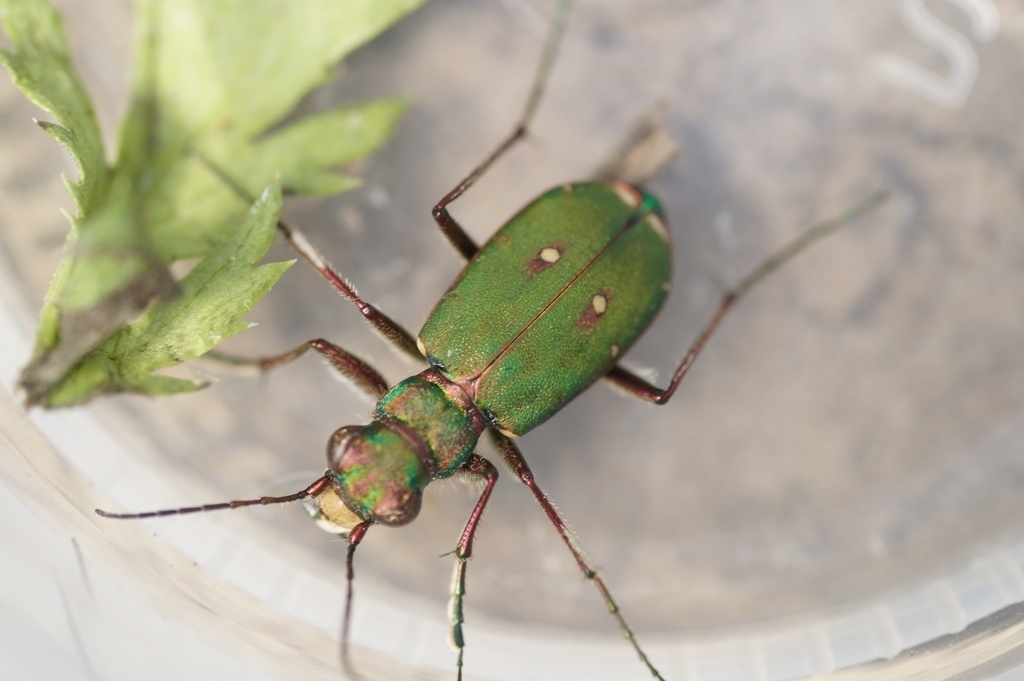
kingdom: Animalia
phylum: Arthropoda
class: Insecta
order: Coleoptera
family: Carabidae
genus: Cicindela
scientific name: Cicindela campestris
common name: Common tiger beetle
